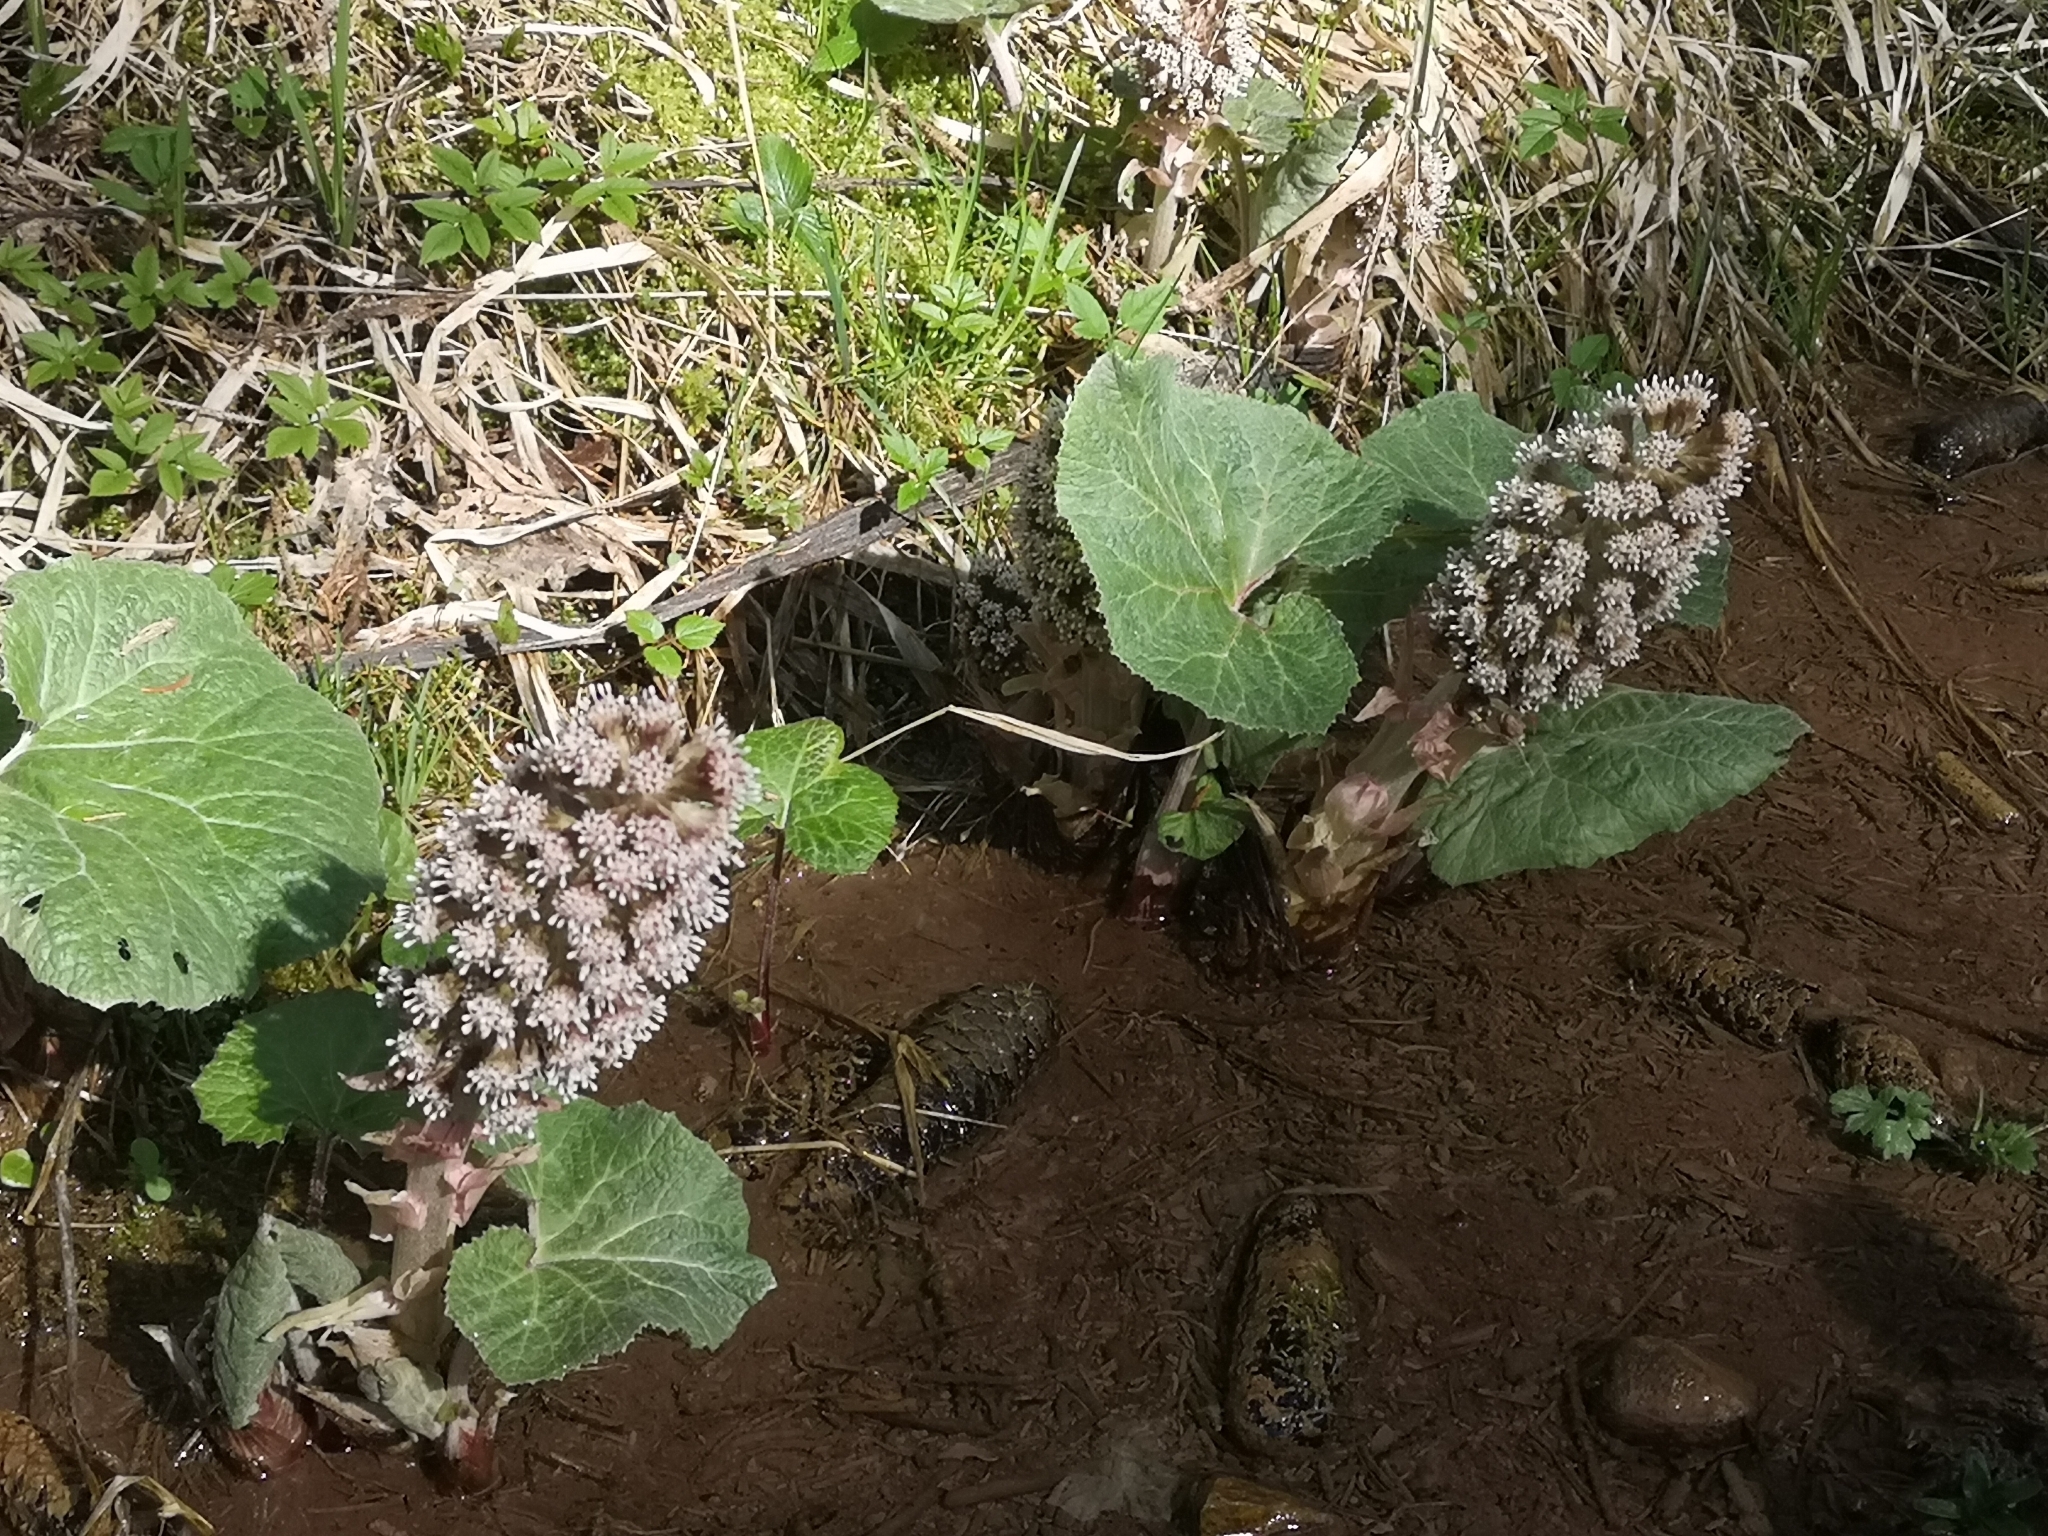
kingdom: Plantae
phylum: Tracheophyta
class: Magnoliopsida
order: Asterales
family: Asteraceae
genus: Petasites
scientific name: Petasites hybridus
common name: Butterbur
